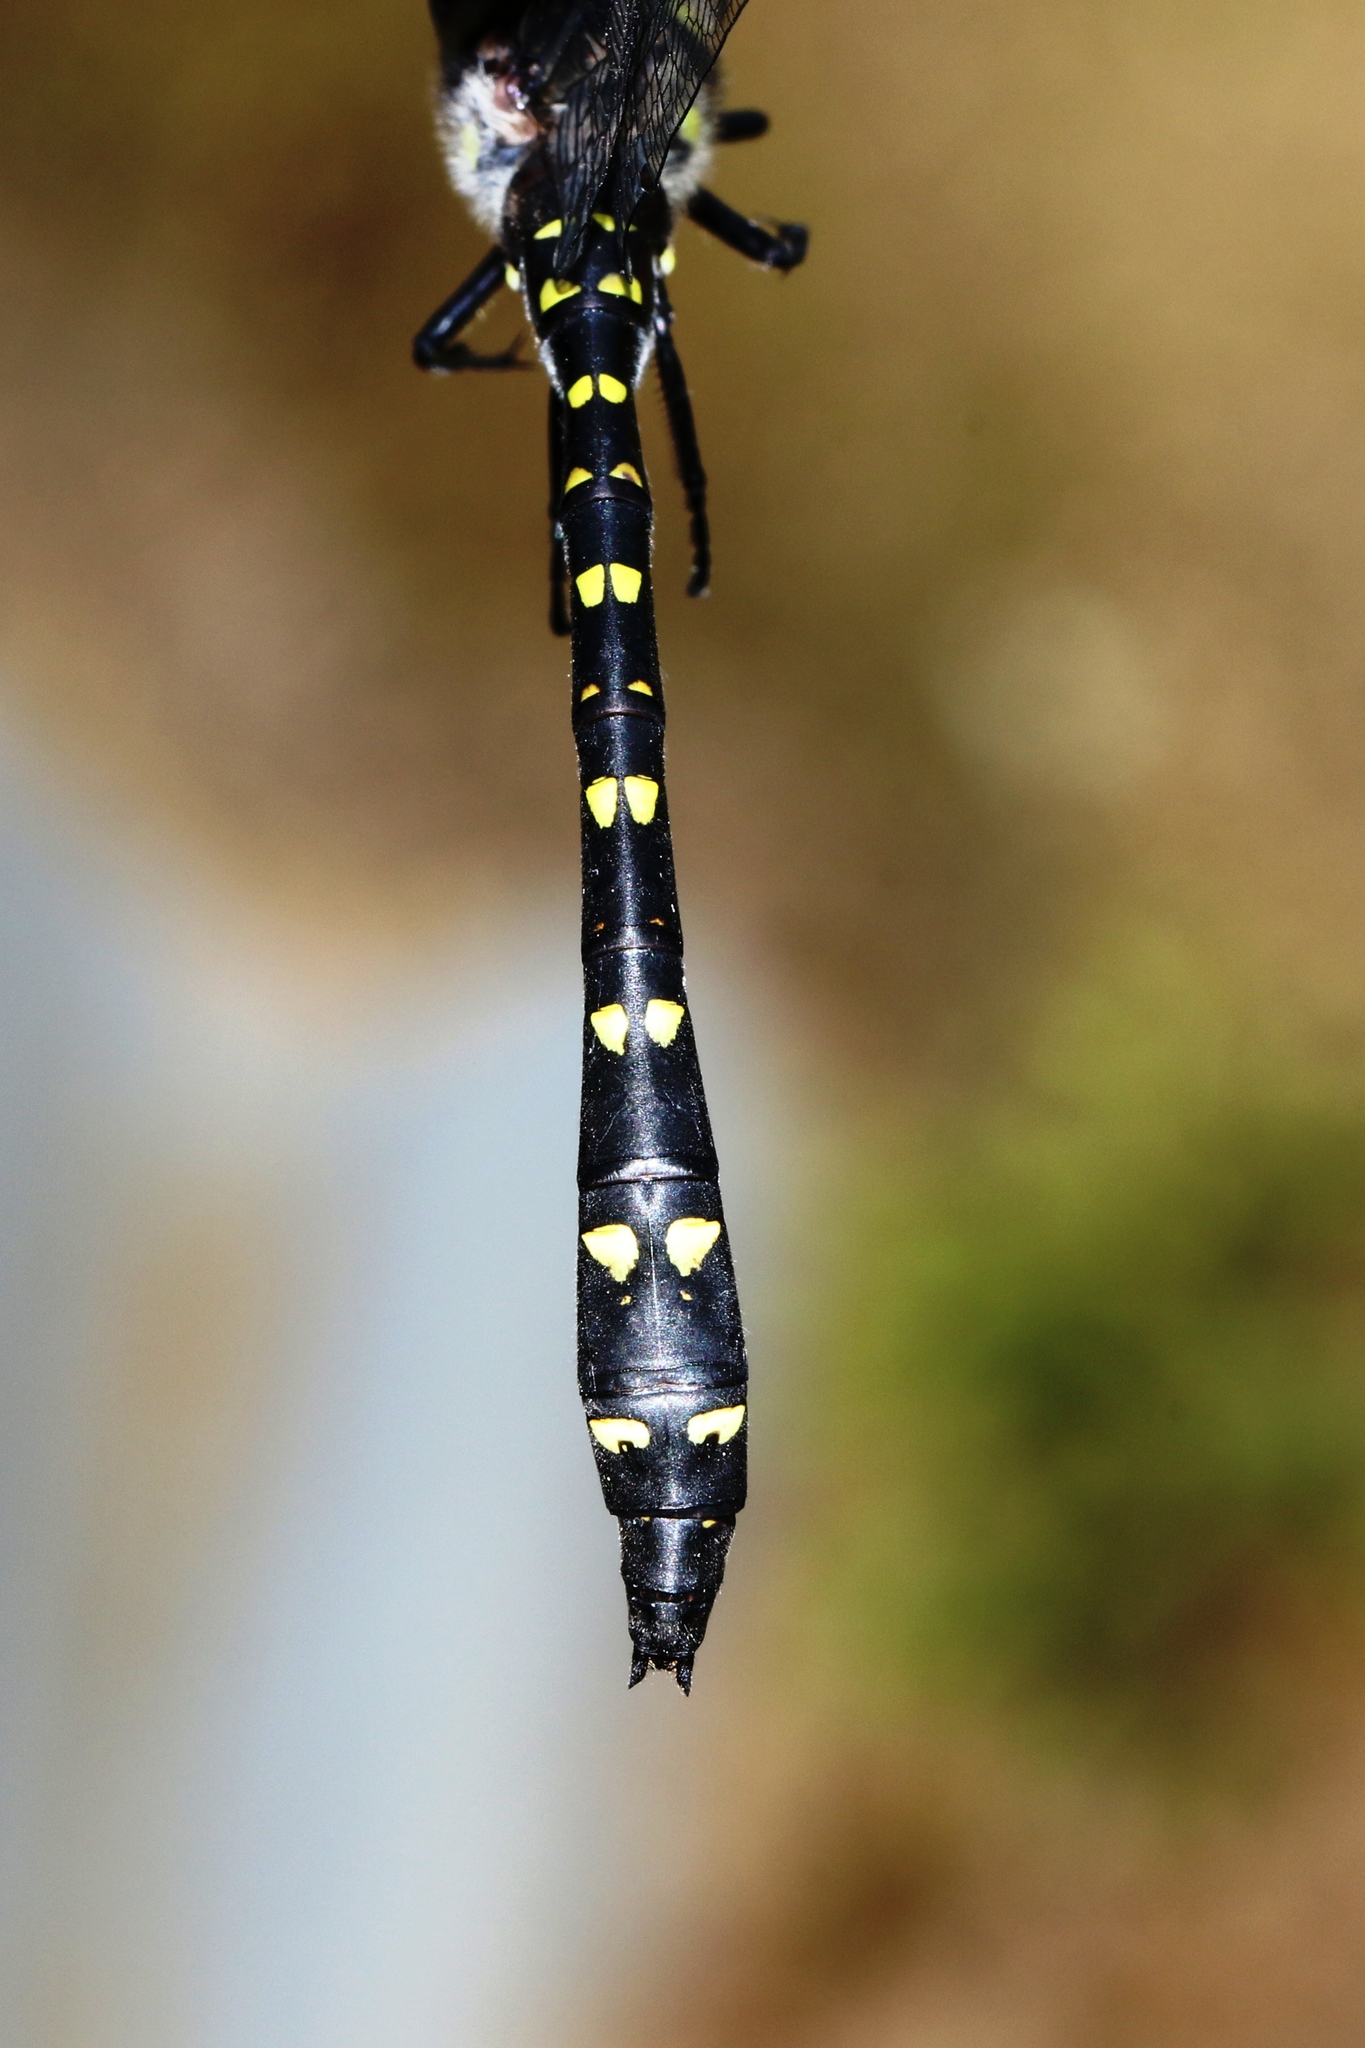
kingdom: Animalia
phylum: Arthropoda
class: Insecta
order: Odonata
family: Cordulegastridae
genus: Cordulegaster
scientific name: Cordulegaster maculata
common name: Twin-spotted spiketail
